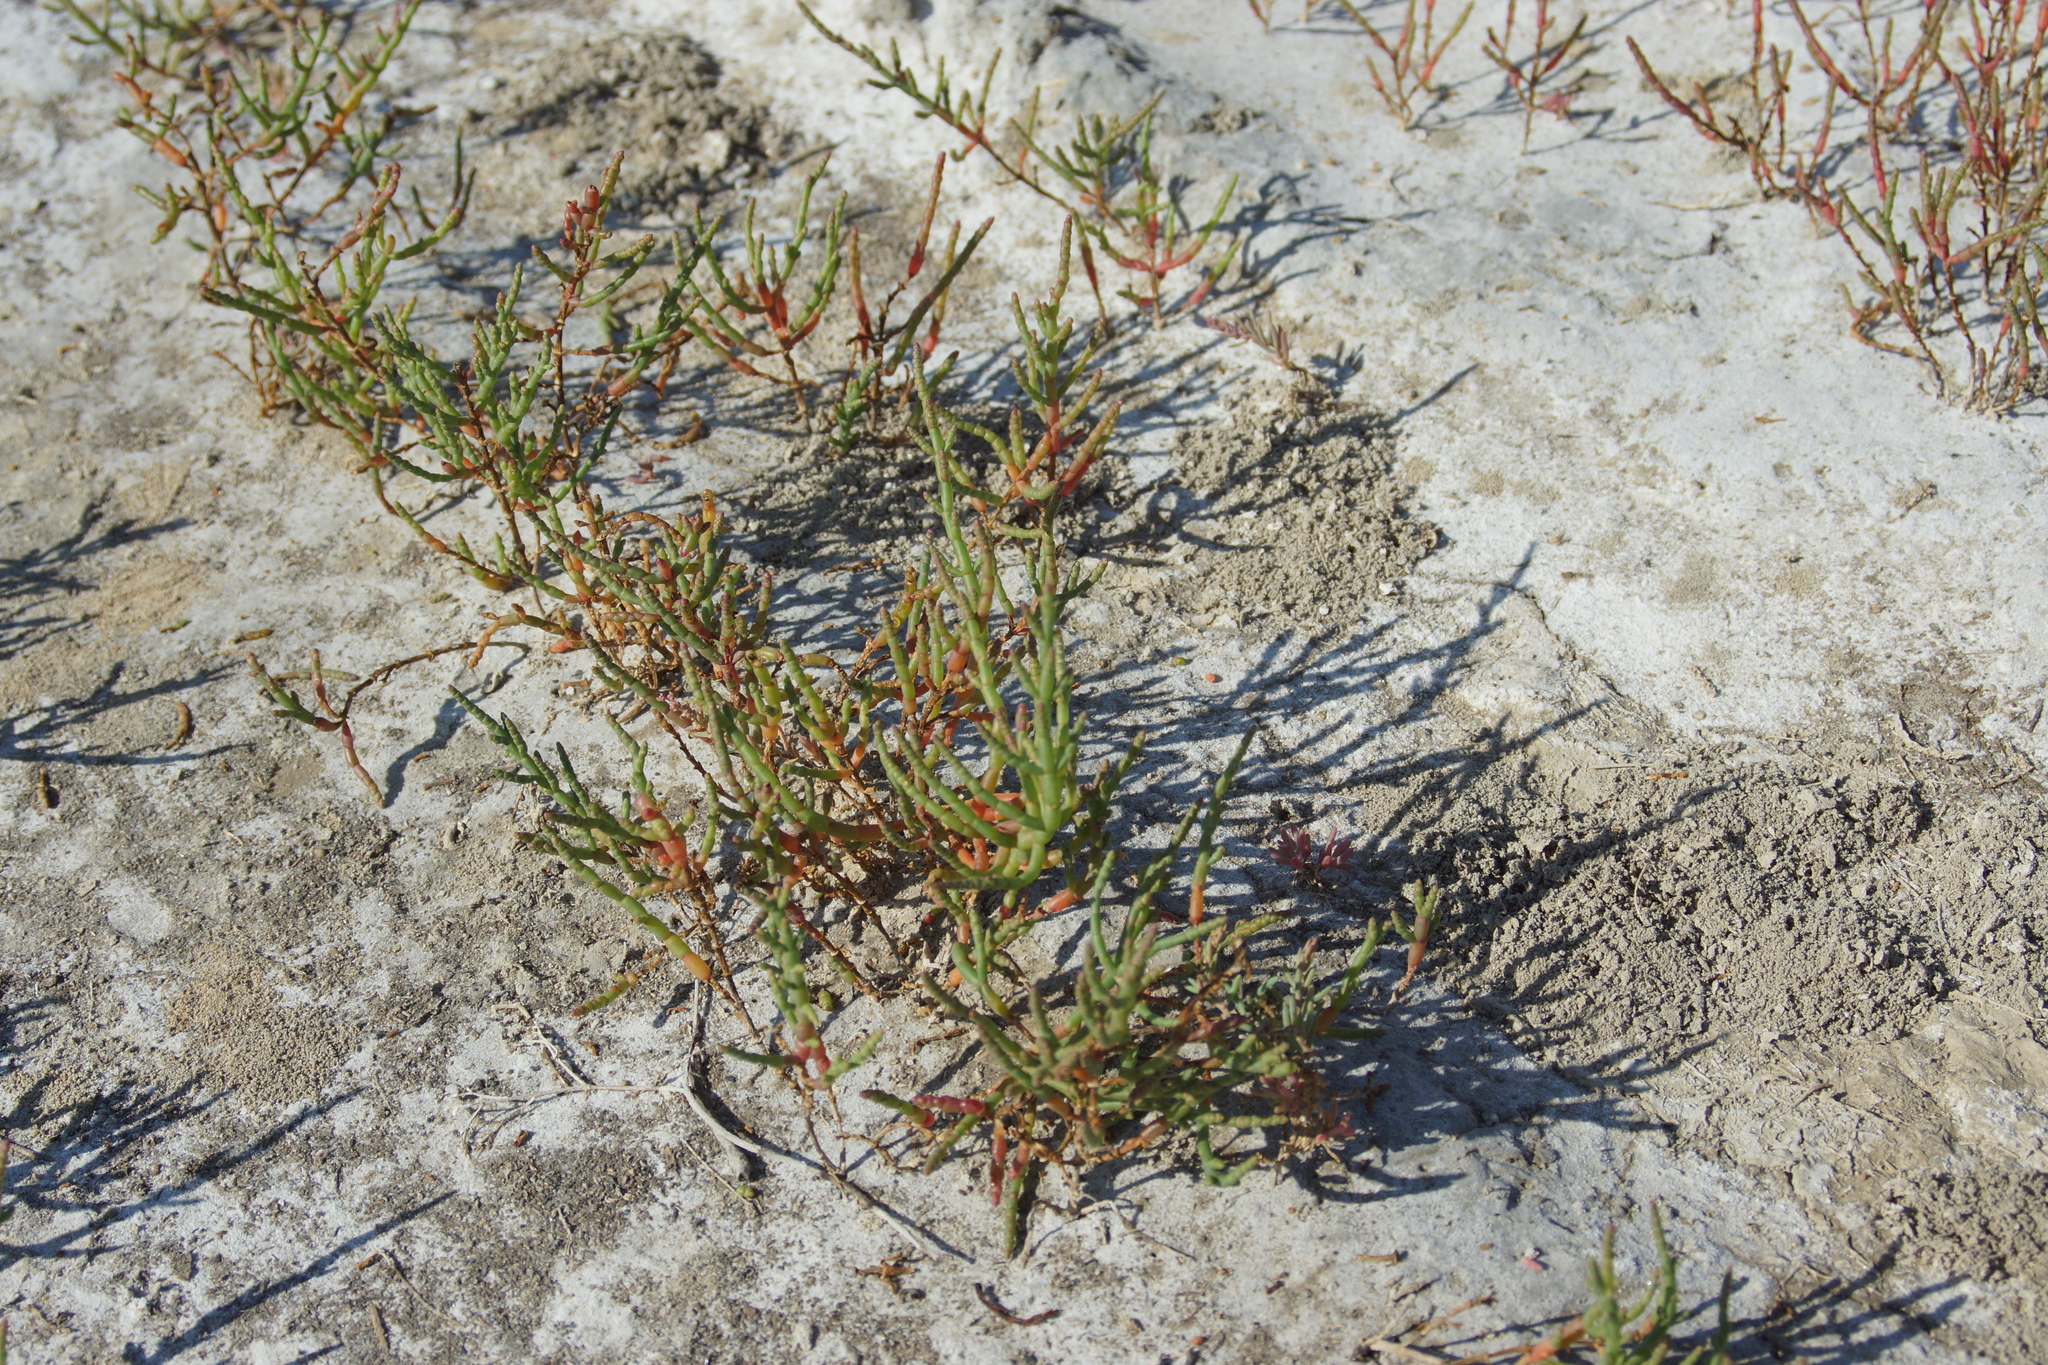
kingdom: Plantae
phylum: Tracheophyta
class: Magnoliopsida
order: Caryophyllales
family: Amaranthaceae
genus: Salicornia
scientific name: Salicornia perennans
